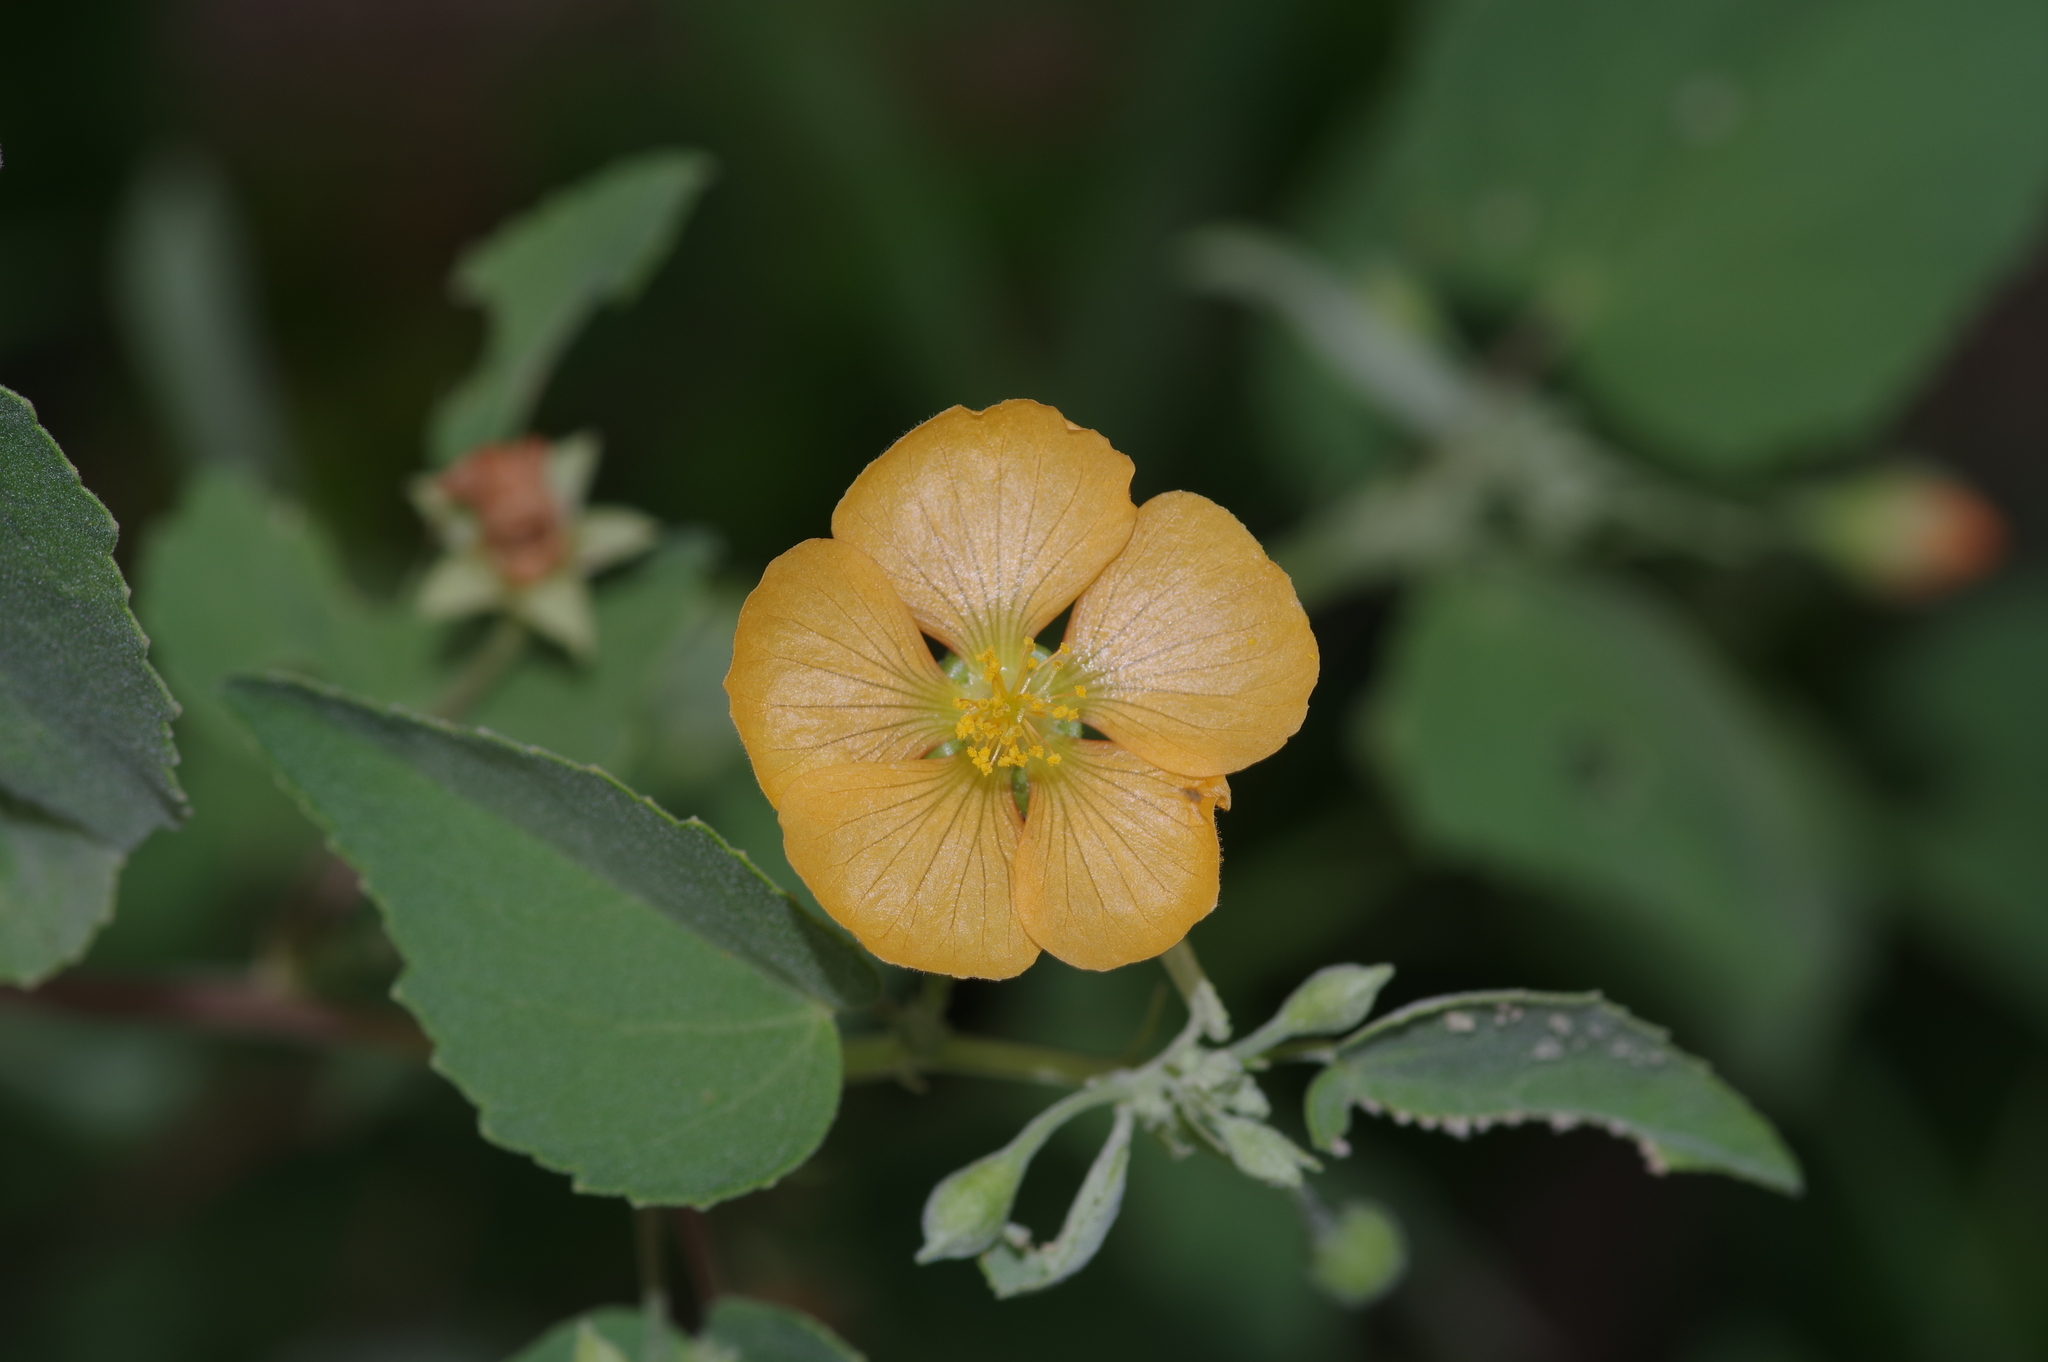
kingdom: Plantae
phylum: Tracheophyta
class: Magnoliopsida
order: Malvales
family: Malvaceae
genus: Abutilon
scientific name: Abutilon fruticosum
